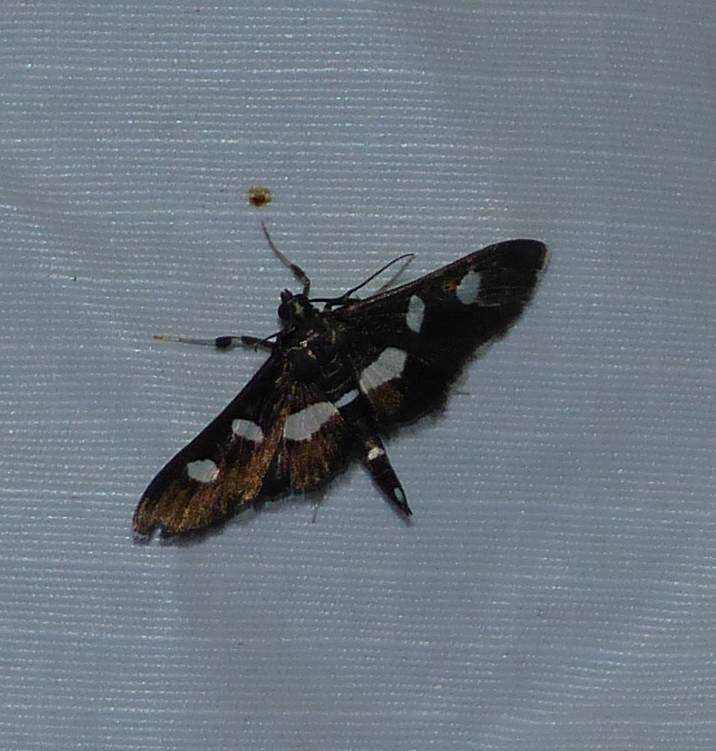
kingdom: Animalia
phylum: Arthropoda
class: Insecta
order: Lepidoptera
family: Crambidae
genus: Desmia
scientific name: Desmia
